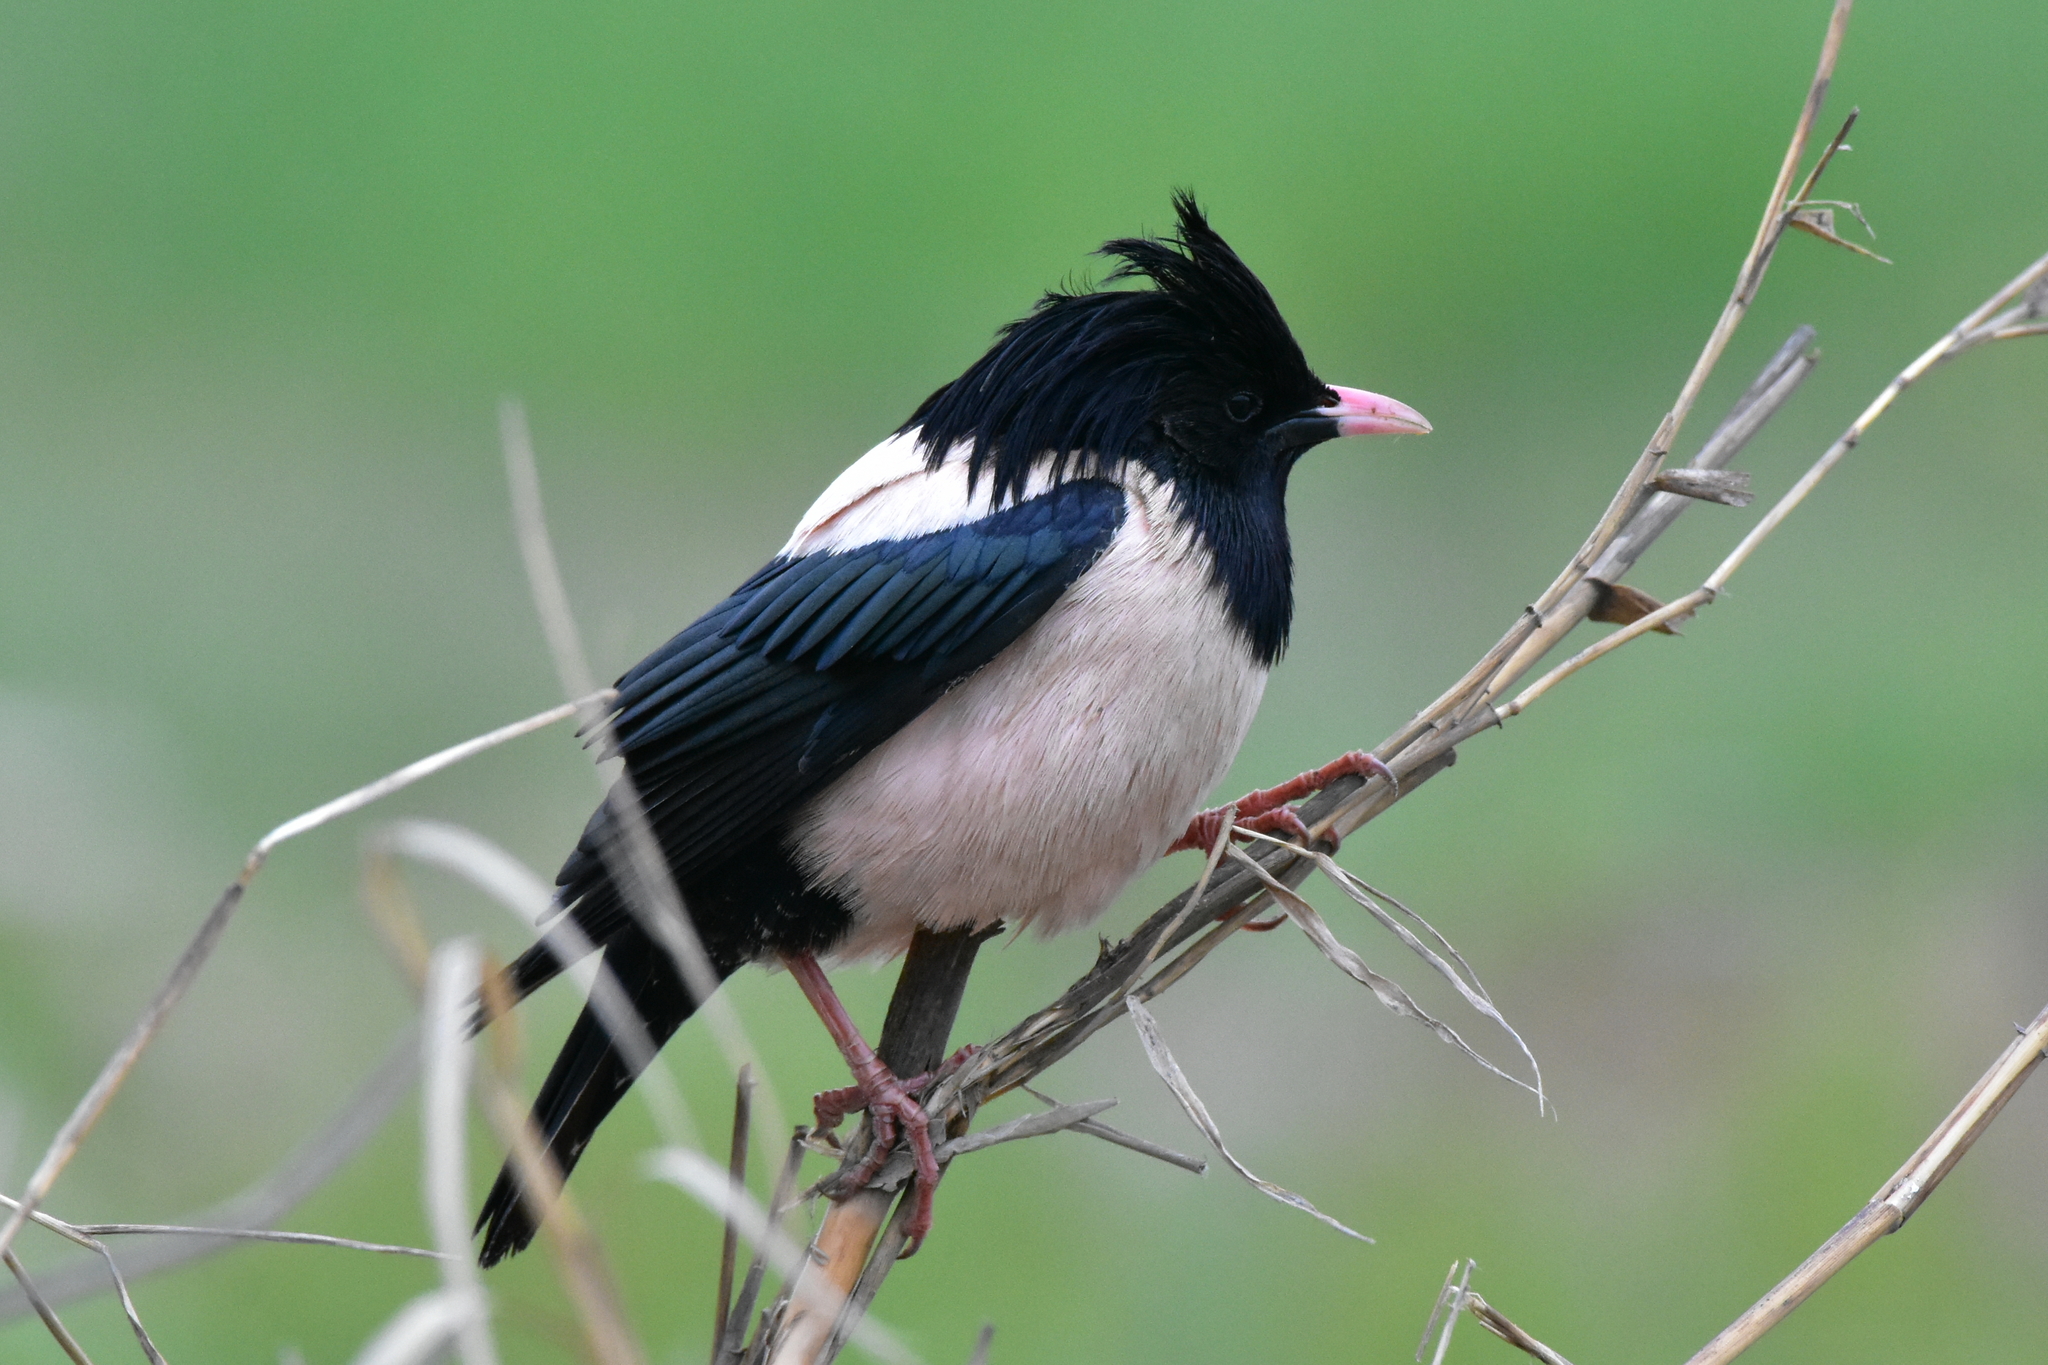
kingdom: Animalia
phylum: Chordata
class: Aves
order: Passeriformes
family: Sturnidae
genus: Pastor
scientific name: Pastor roseus
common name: Rosy starling
